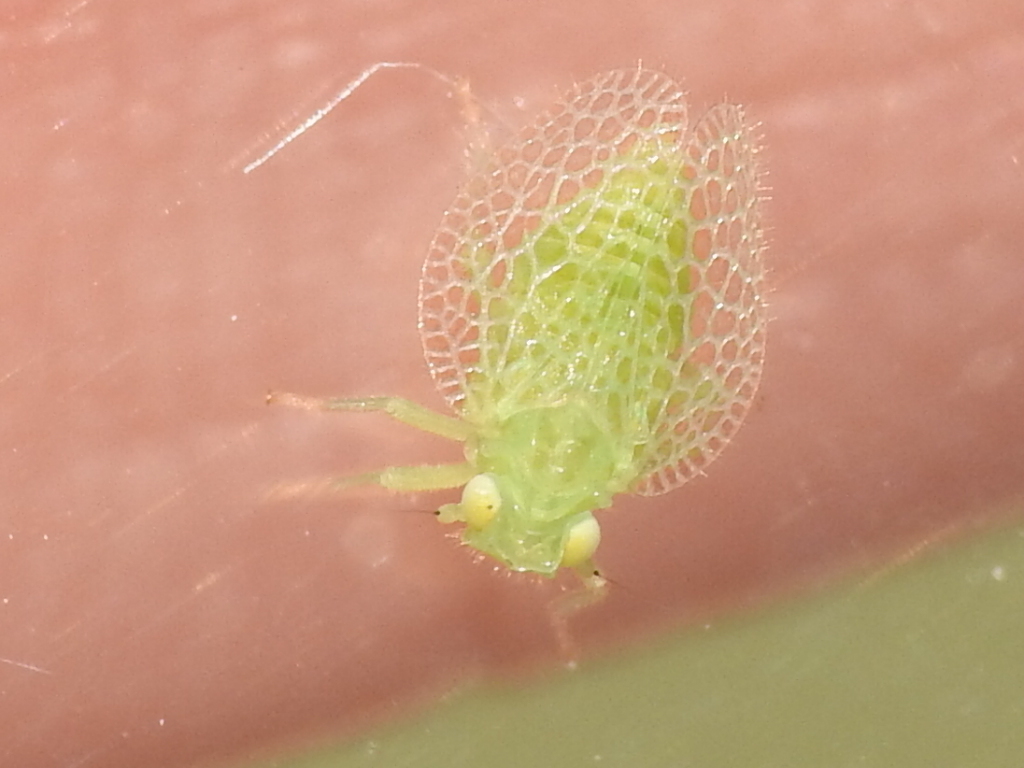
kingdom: Animalia
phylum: Arthropoda
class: Insecta
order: Hemiptera
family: Tropiduchidae
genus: Dictyonissus
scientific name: Dictyonissus griphus
